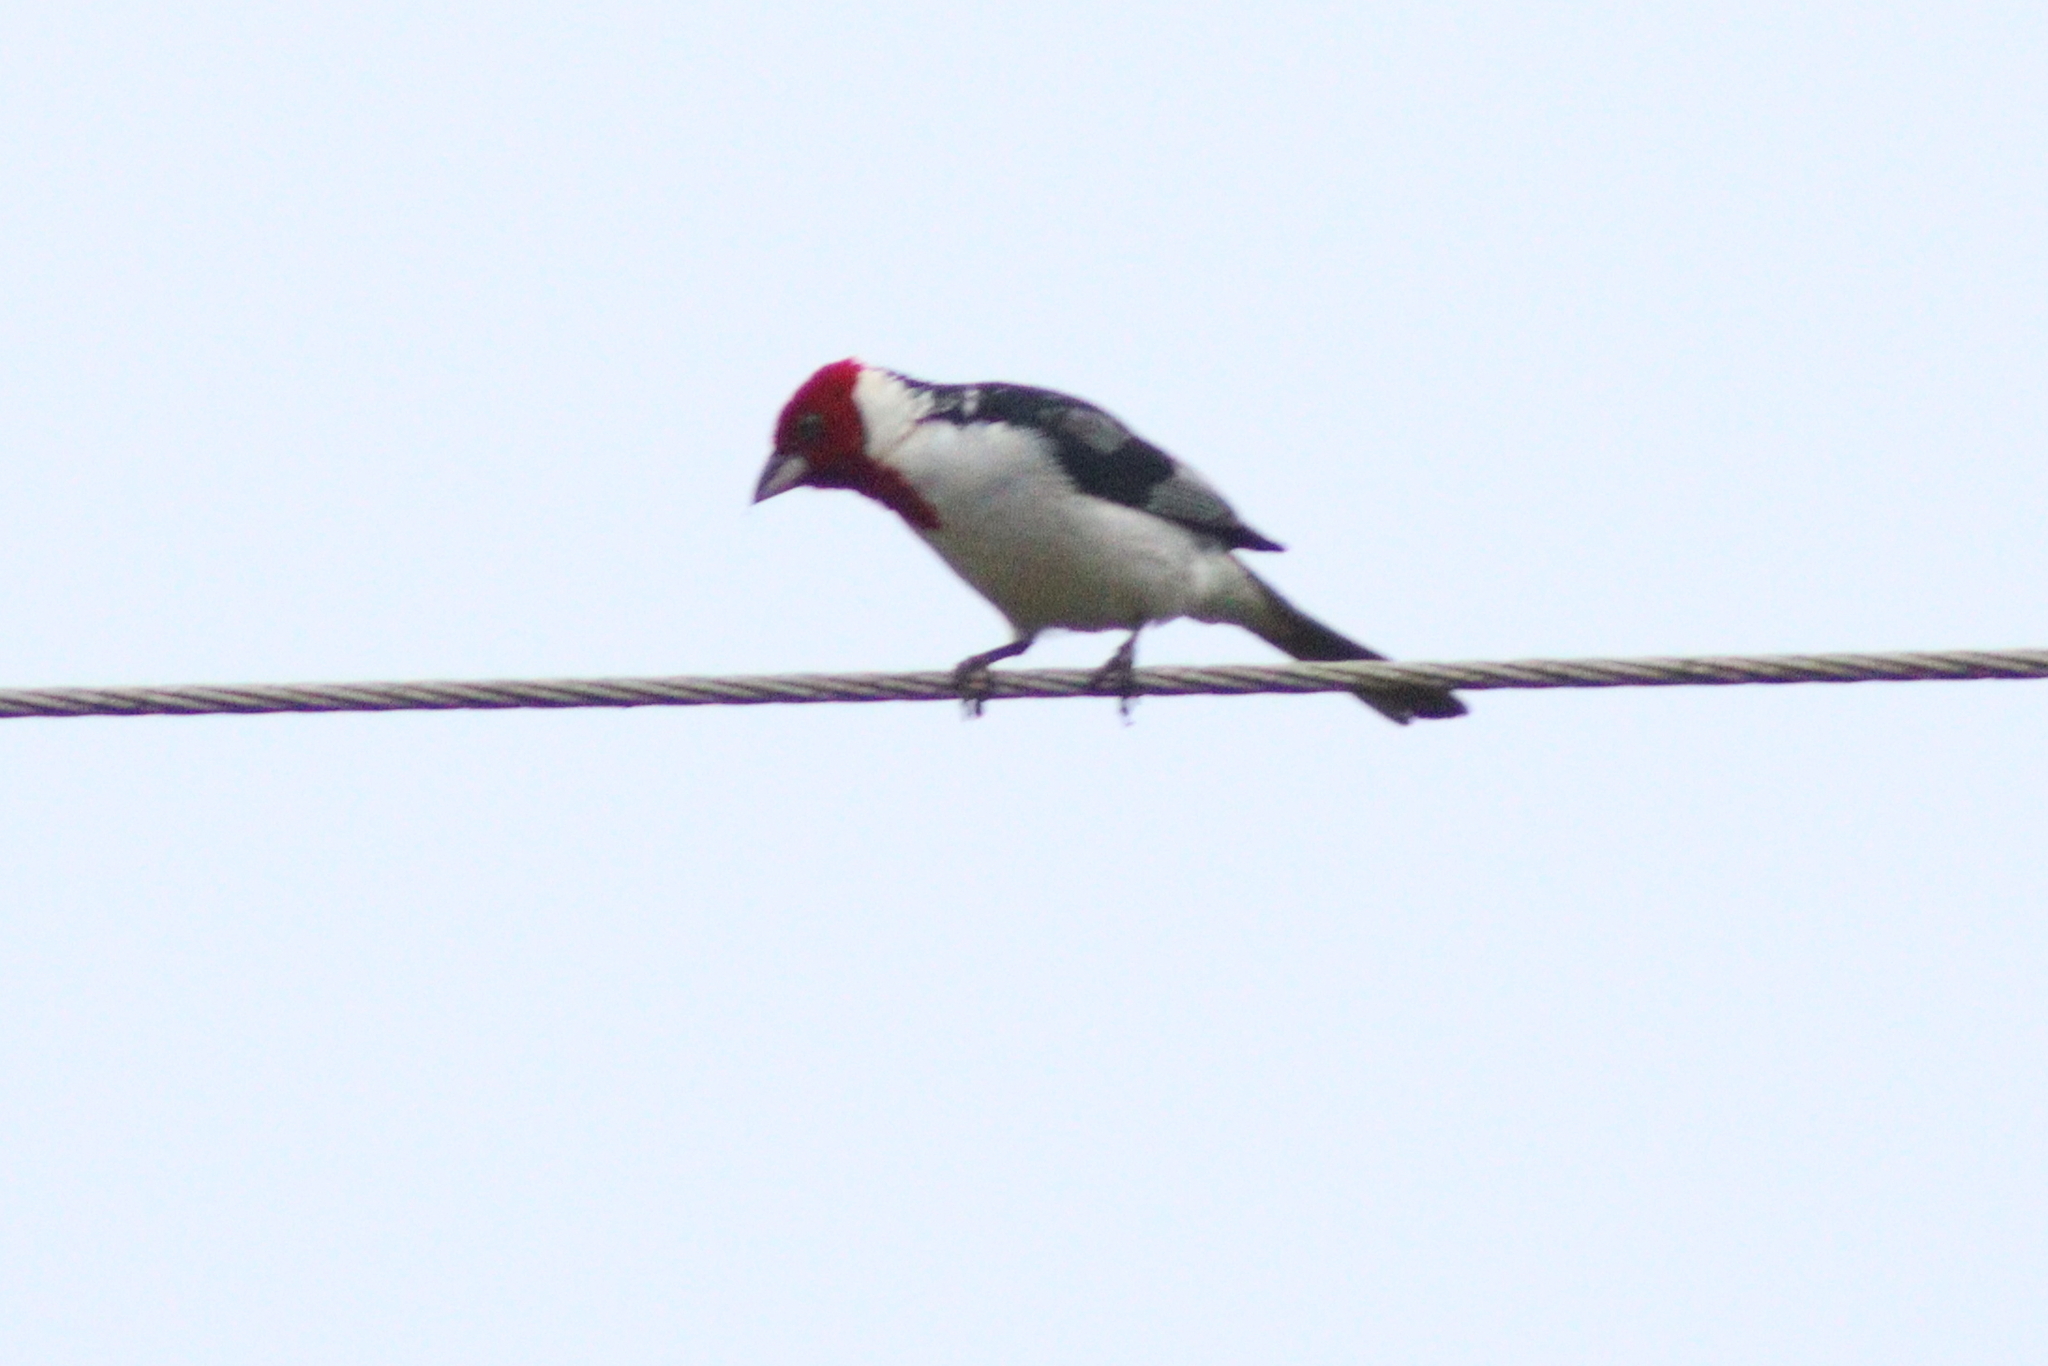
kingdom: Animalia
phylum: Chordata
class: Aves
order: Passeriformes
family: Thraupidae
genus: Paroaria
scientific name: Paroaria dominicana
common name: Red-cowled cardinal
